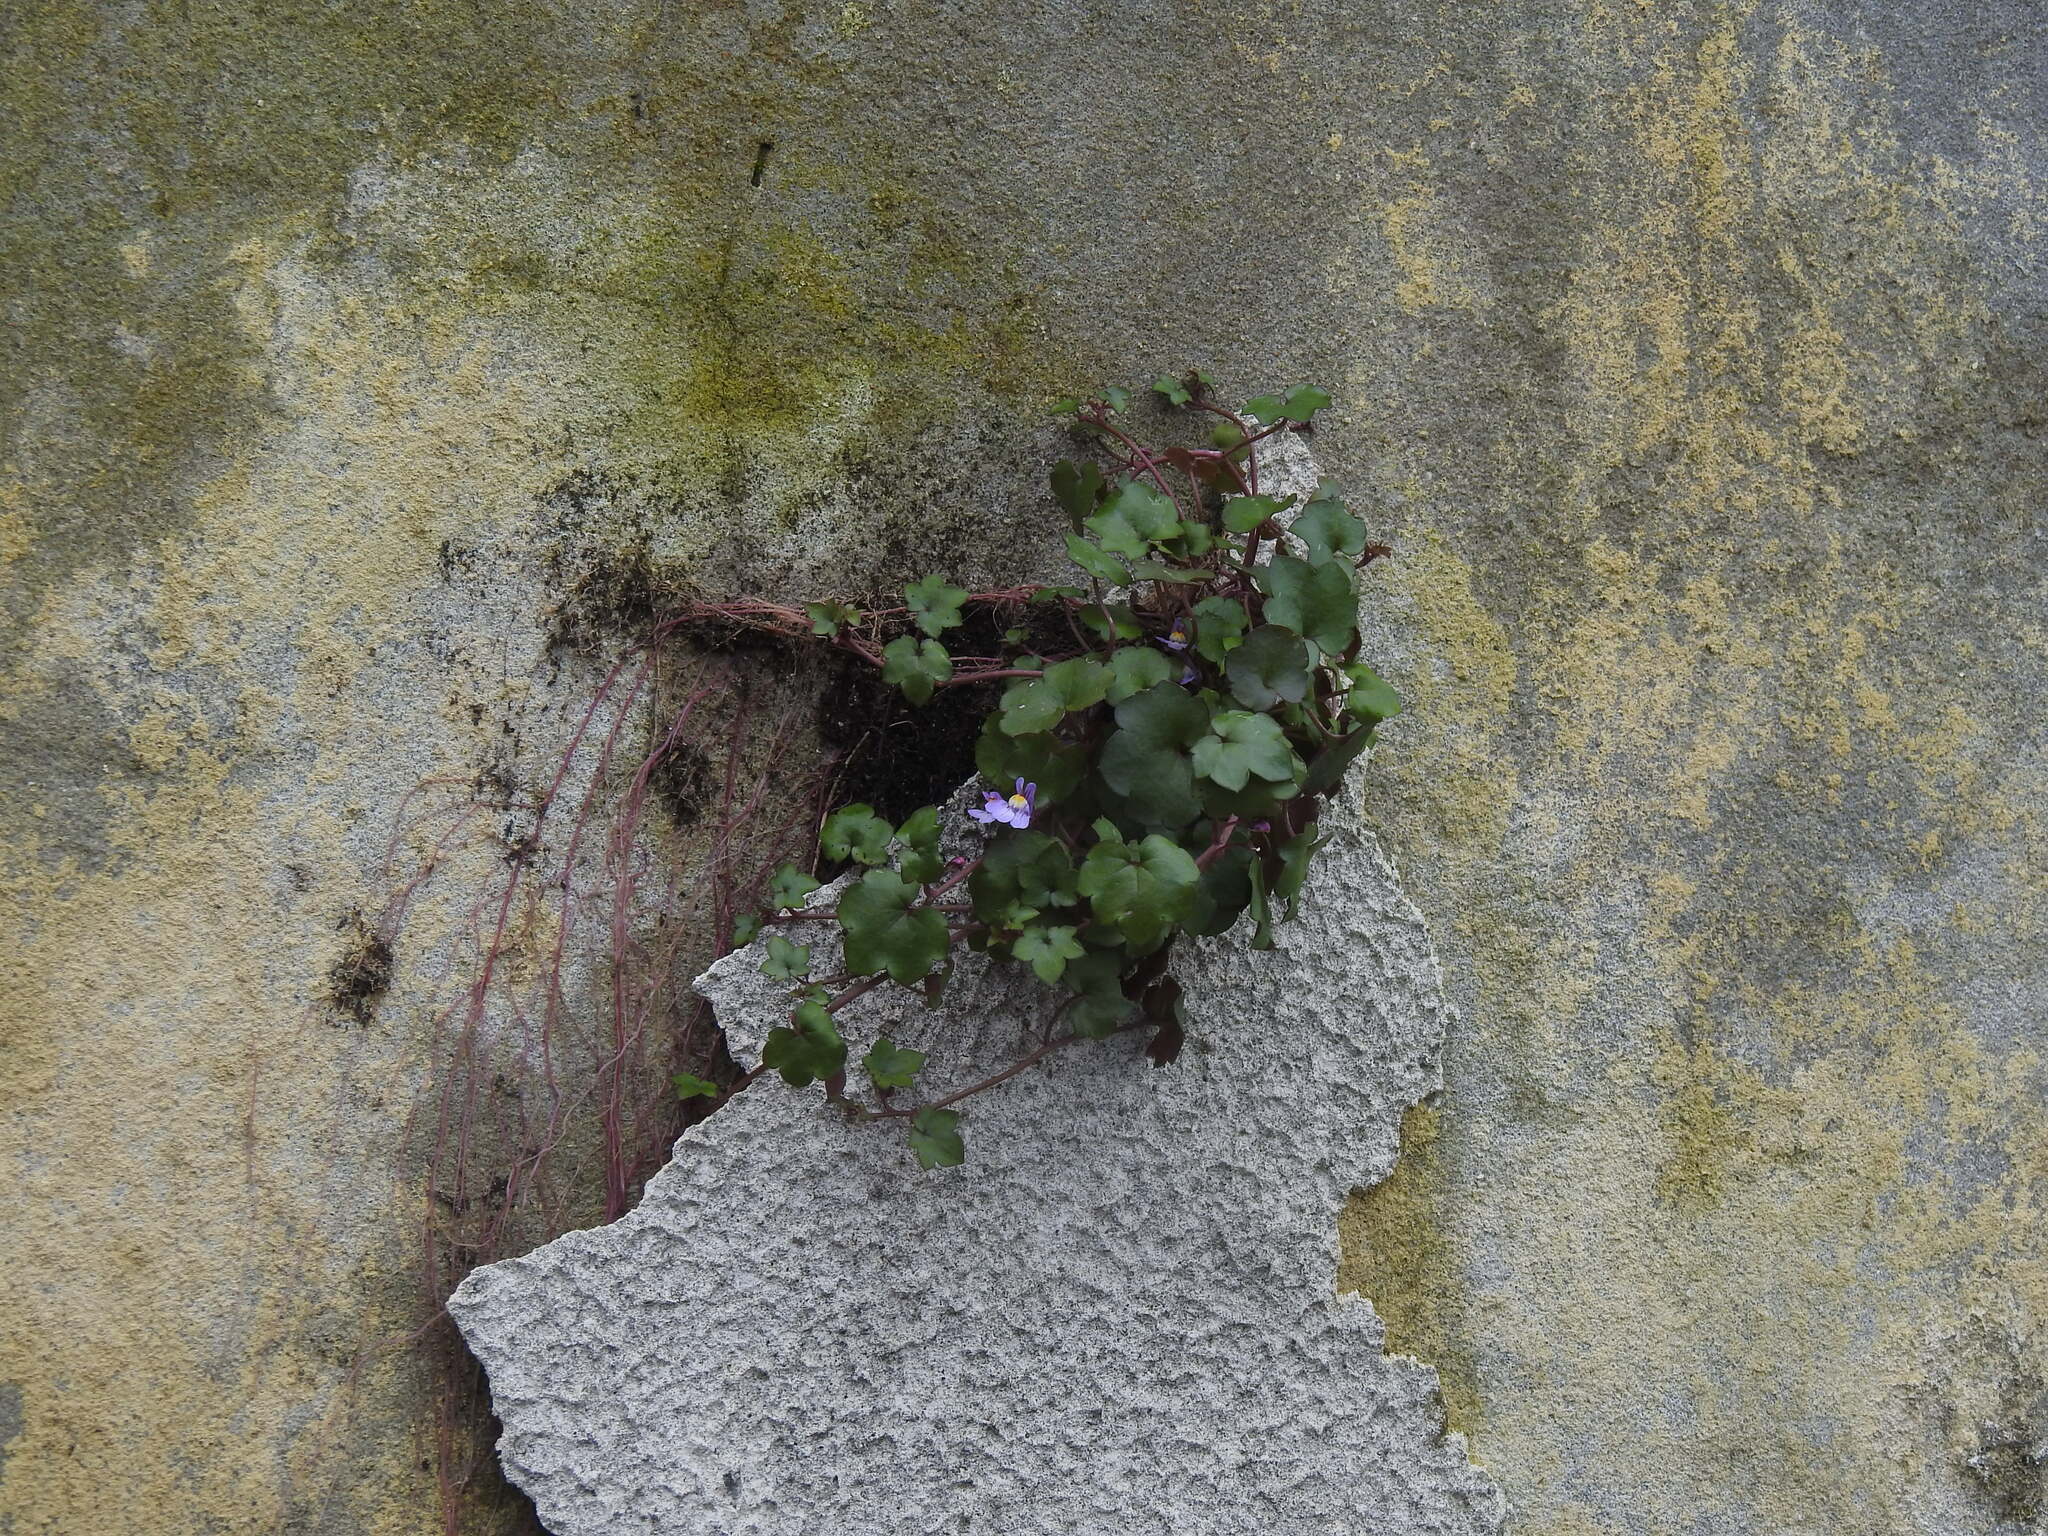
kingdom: Plantae
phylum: Tracheophyta
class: Magnoliopsida
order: Lamiales
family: Plantaginaceae
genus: Cymbalaria
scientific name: Cymbalaria muralis
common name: Ivy-leaved toadflax
